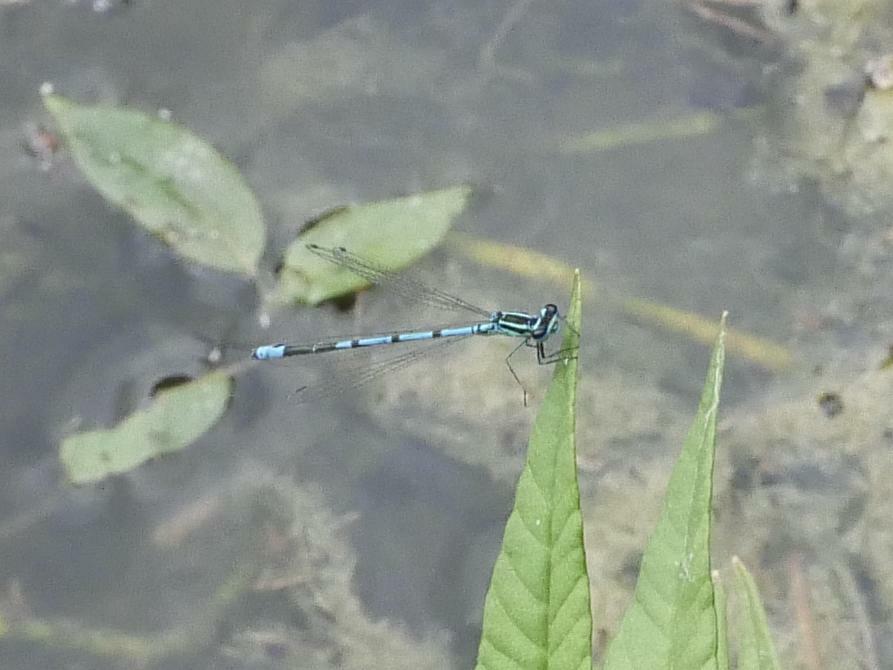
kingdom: Animalia
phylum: Arthropoda
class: Insecta
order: Odonata
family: Coenagrionidae
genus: Coenagrion
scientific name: Coenagrion puella
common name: Azure damselfly
